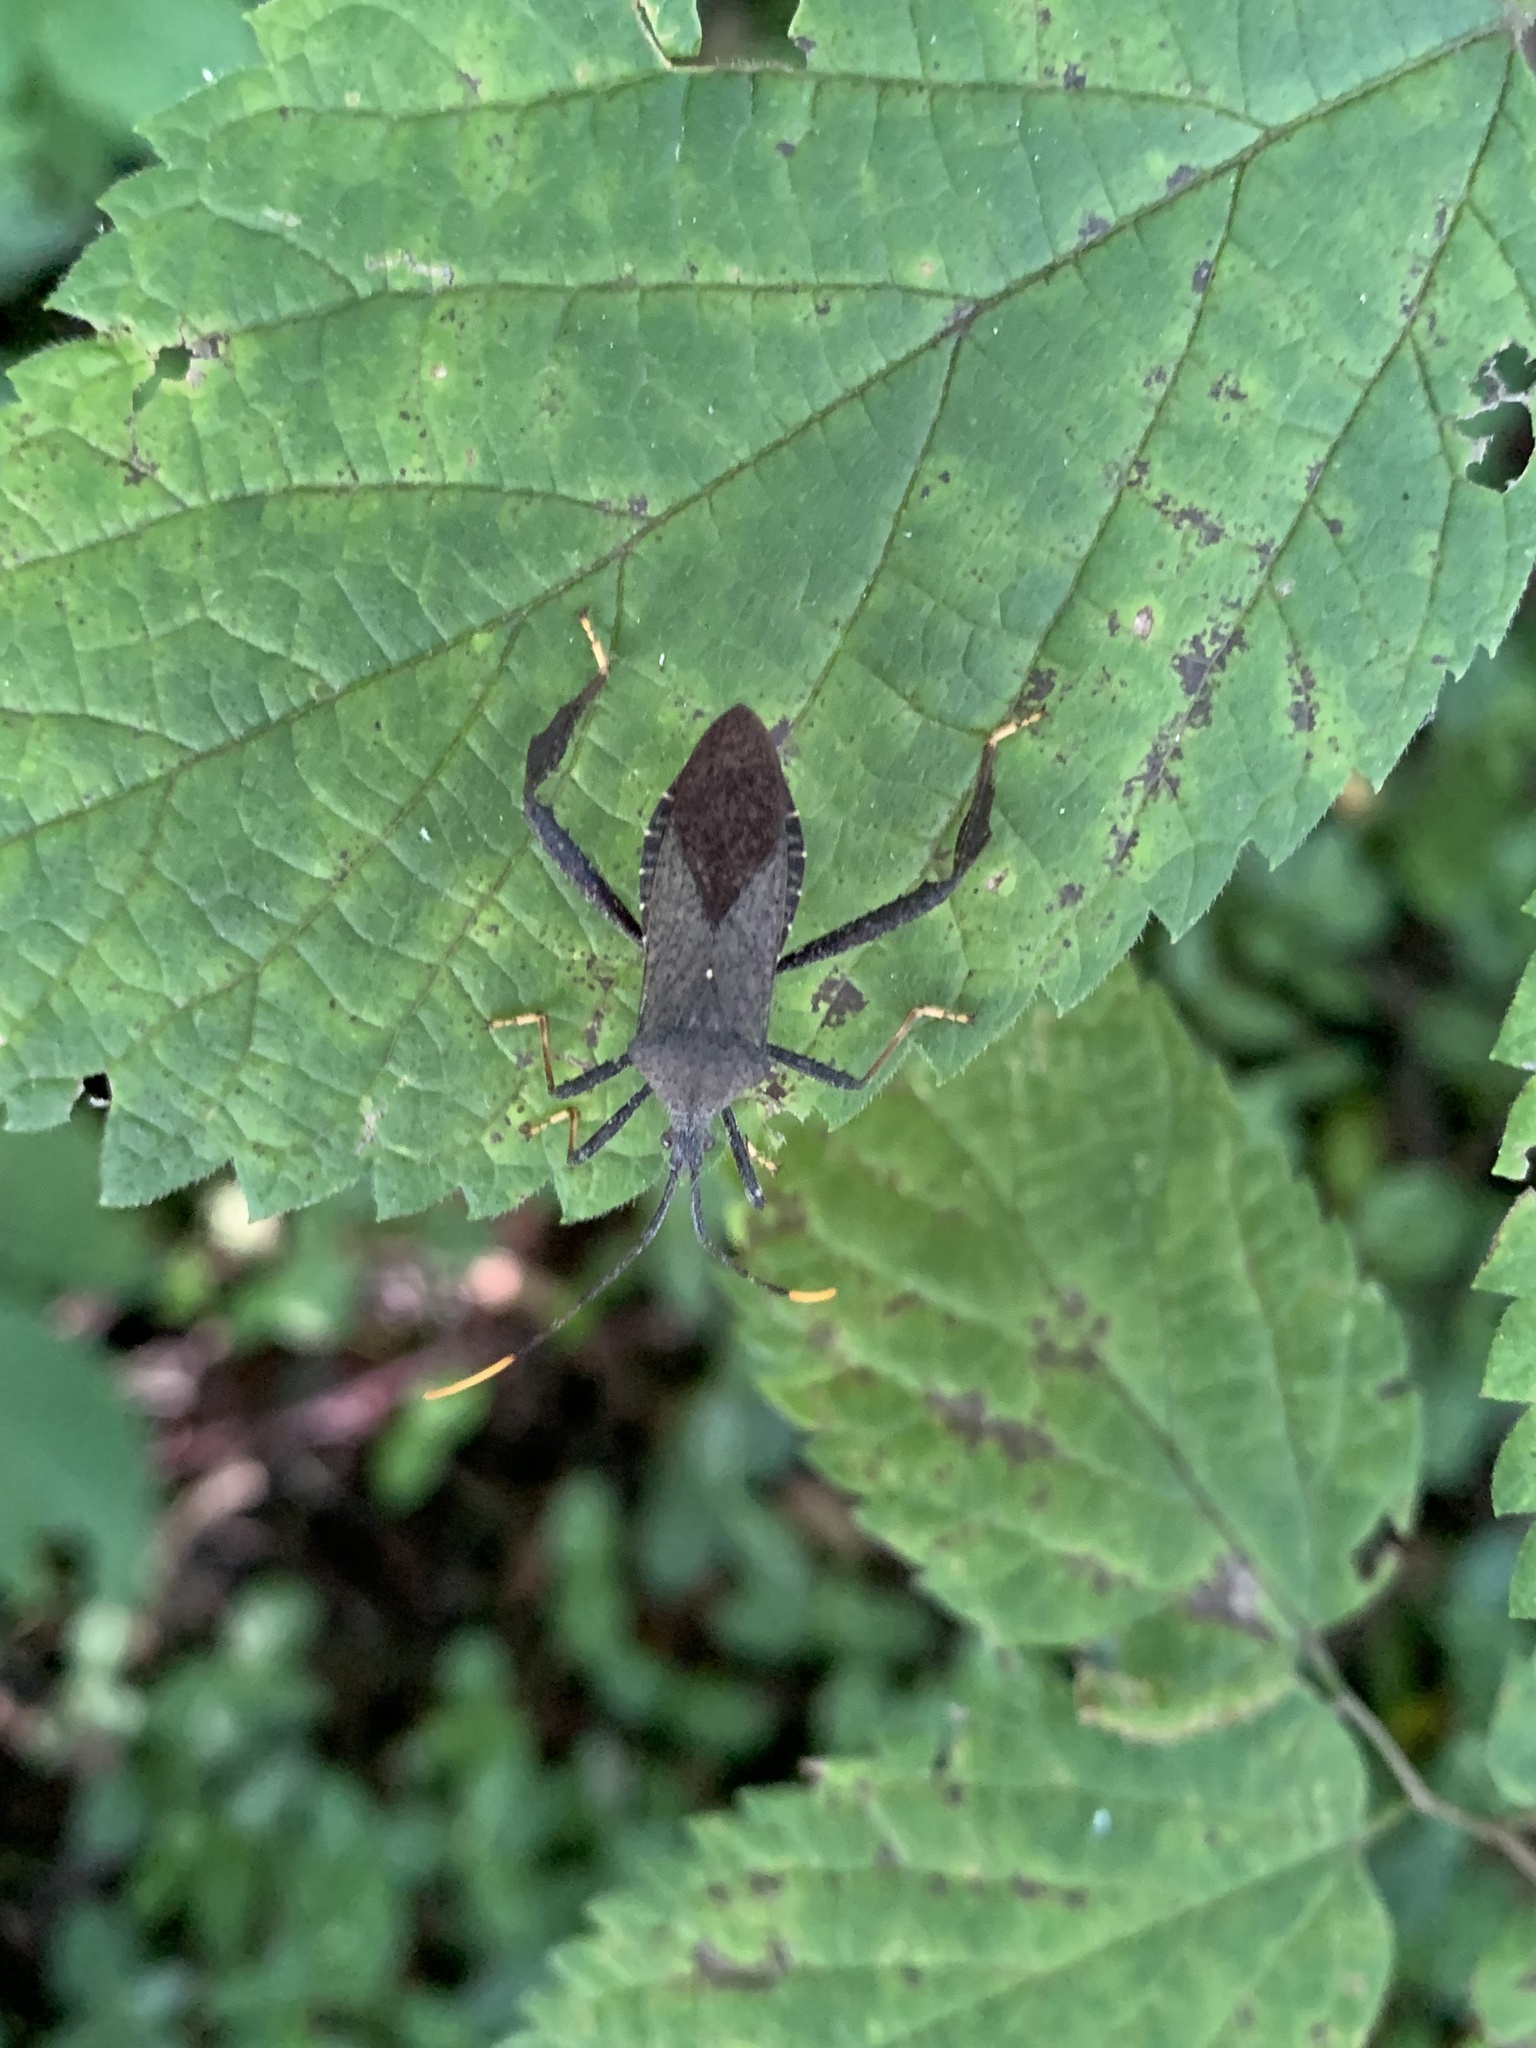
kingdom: Animalia
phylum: Arthropoda
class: Insecta
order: Hemiptera
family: Coreidae
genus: Acanthocephala
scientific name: Acanthocephala terminalis
